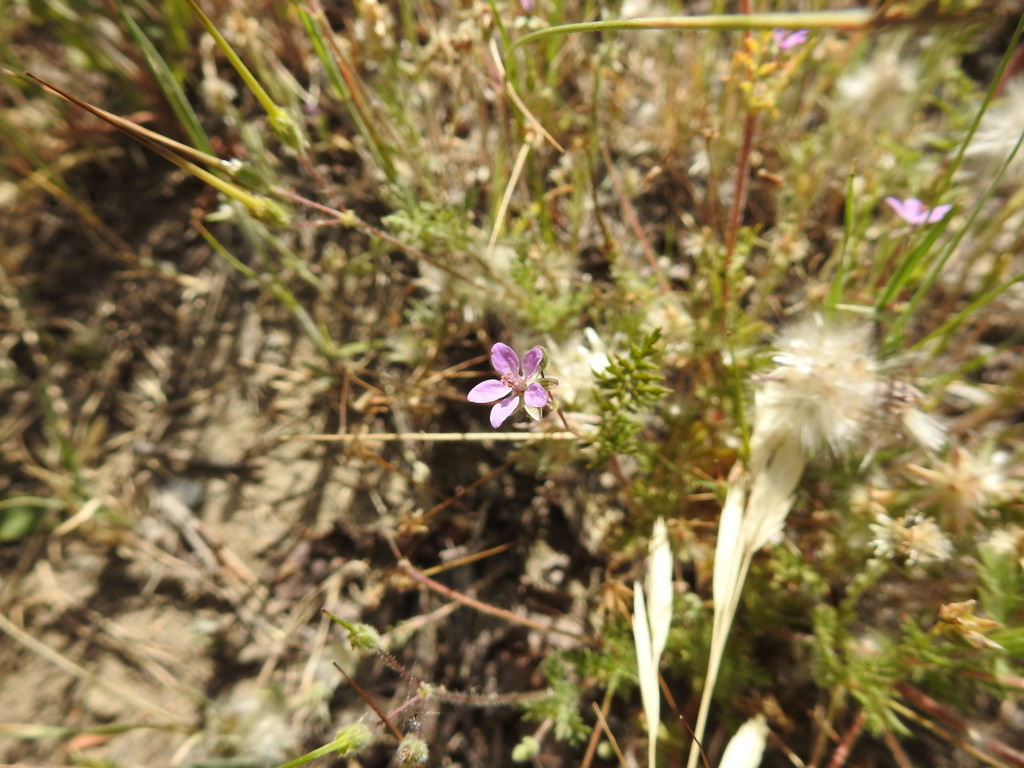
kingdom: Plantae
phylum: Tracheophyta
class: Magnoliopsida
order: Geraniales
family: Geraniaceae
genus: Erodium
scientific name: Erodium cicutarium
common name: Common stork's-bill
